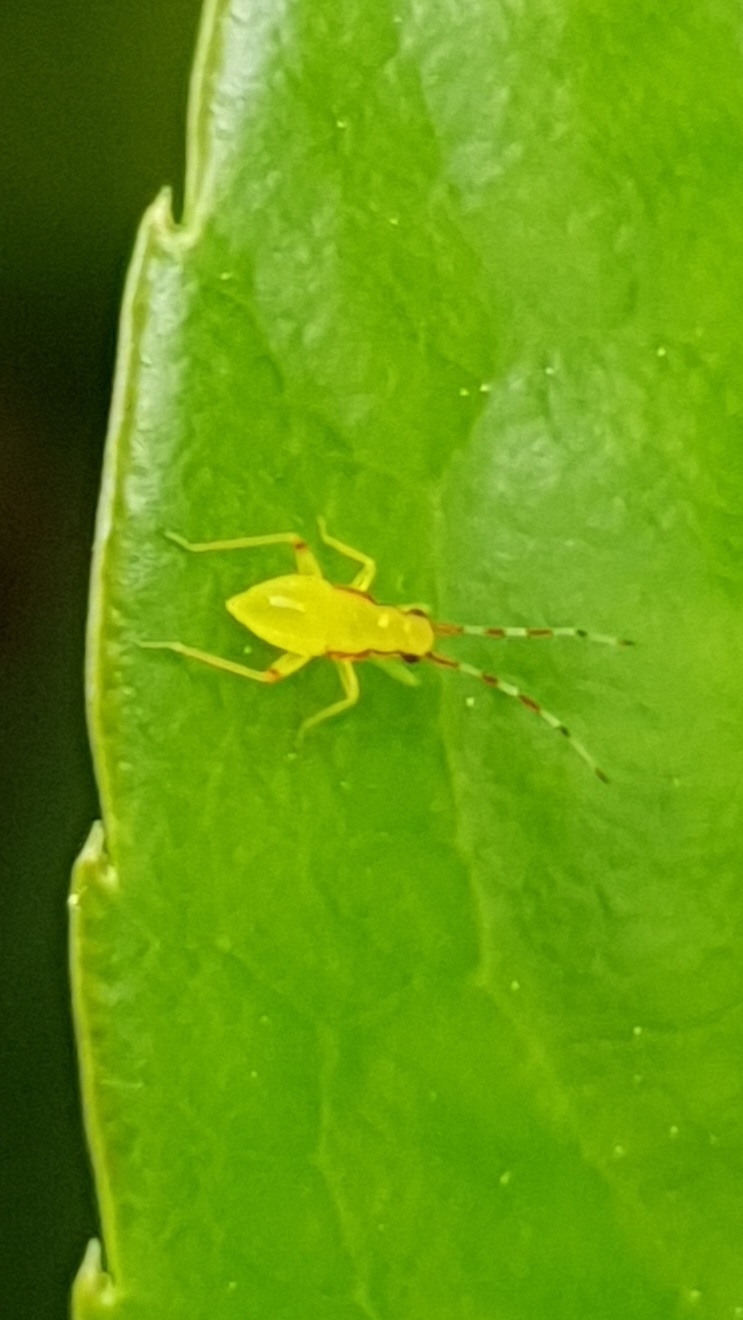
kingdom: Animalia
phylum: Arthropoda
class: Insecta
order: Hemiptera
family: Miridae
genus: Campyloneura
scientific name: Campyloneura virgula
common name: Predatory bug
